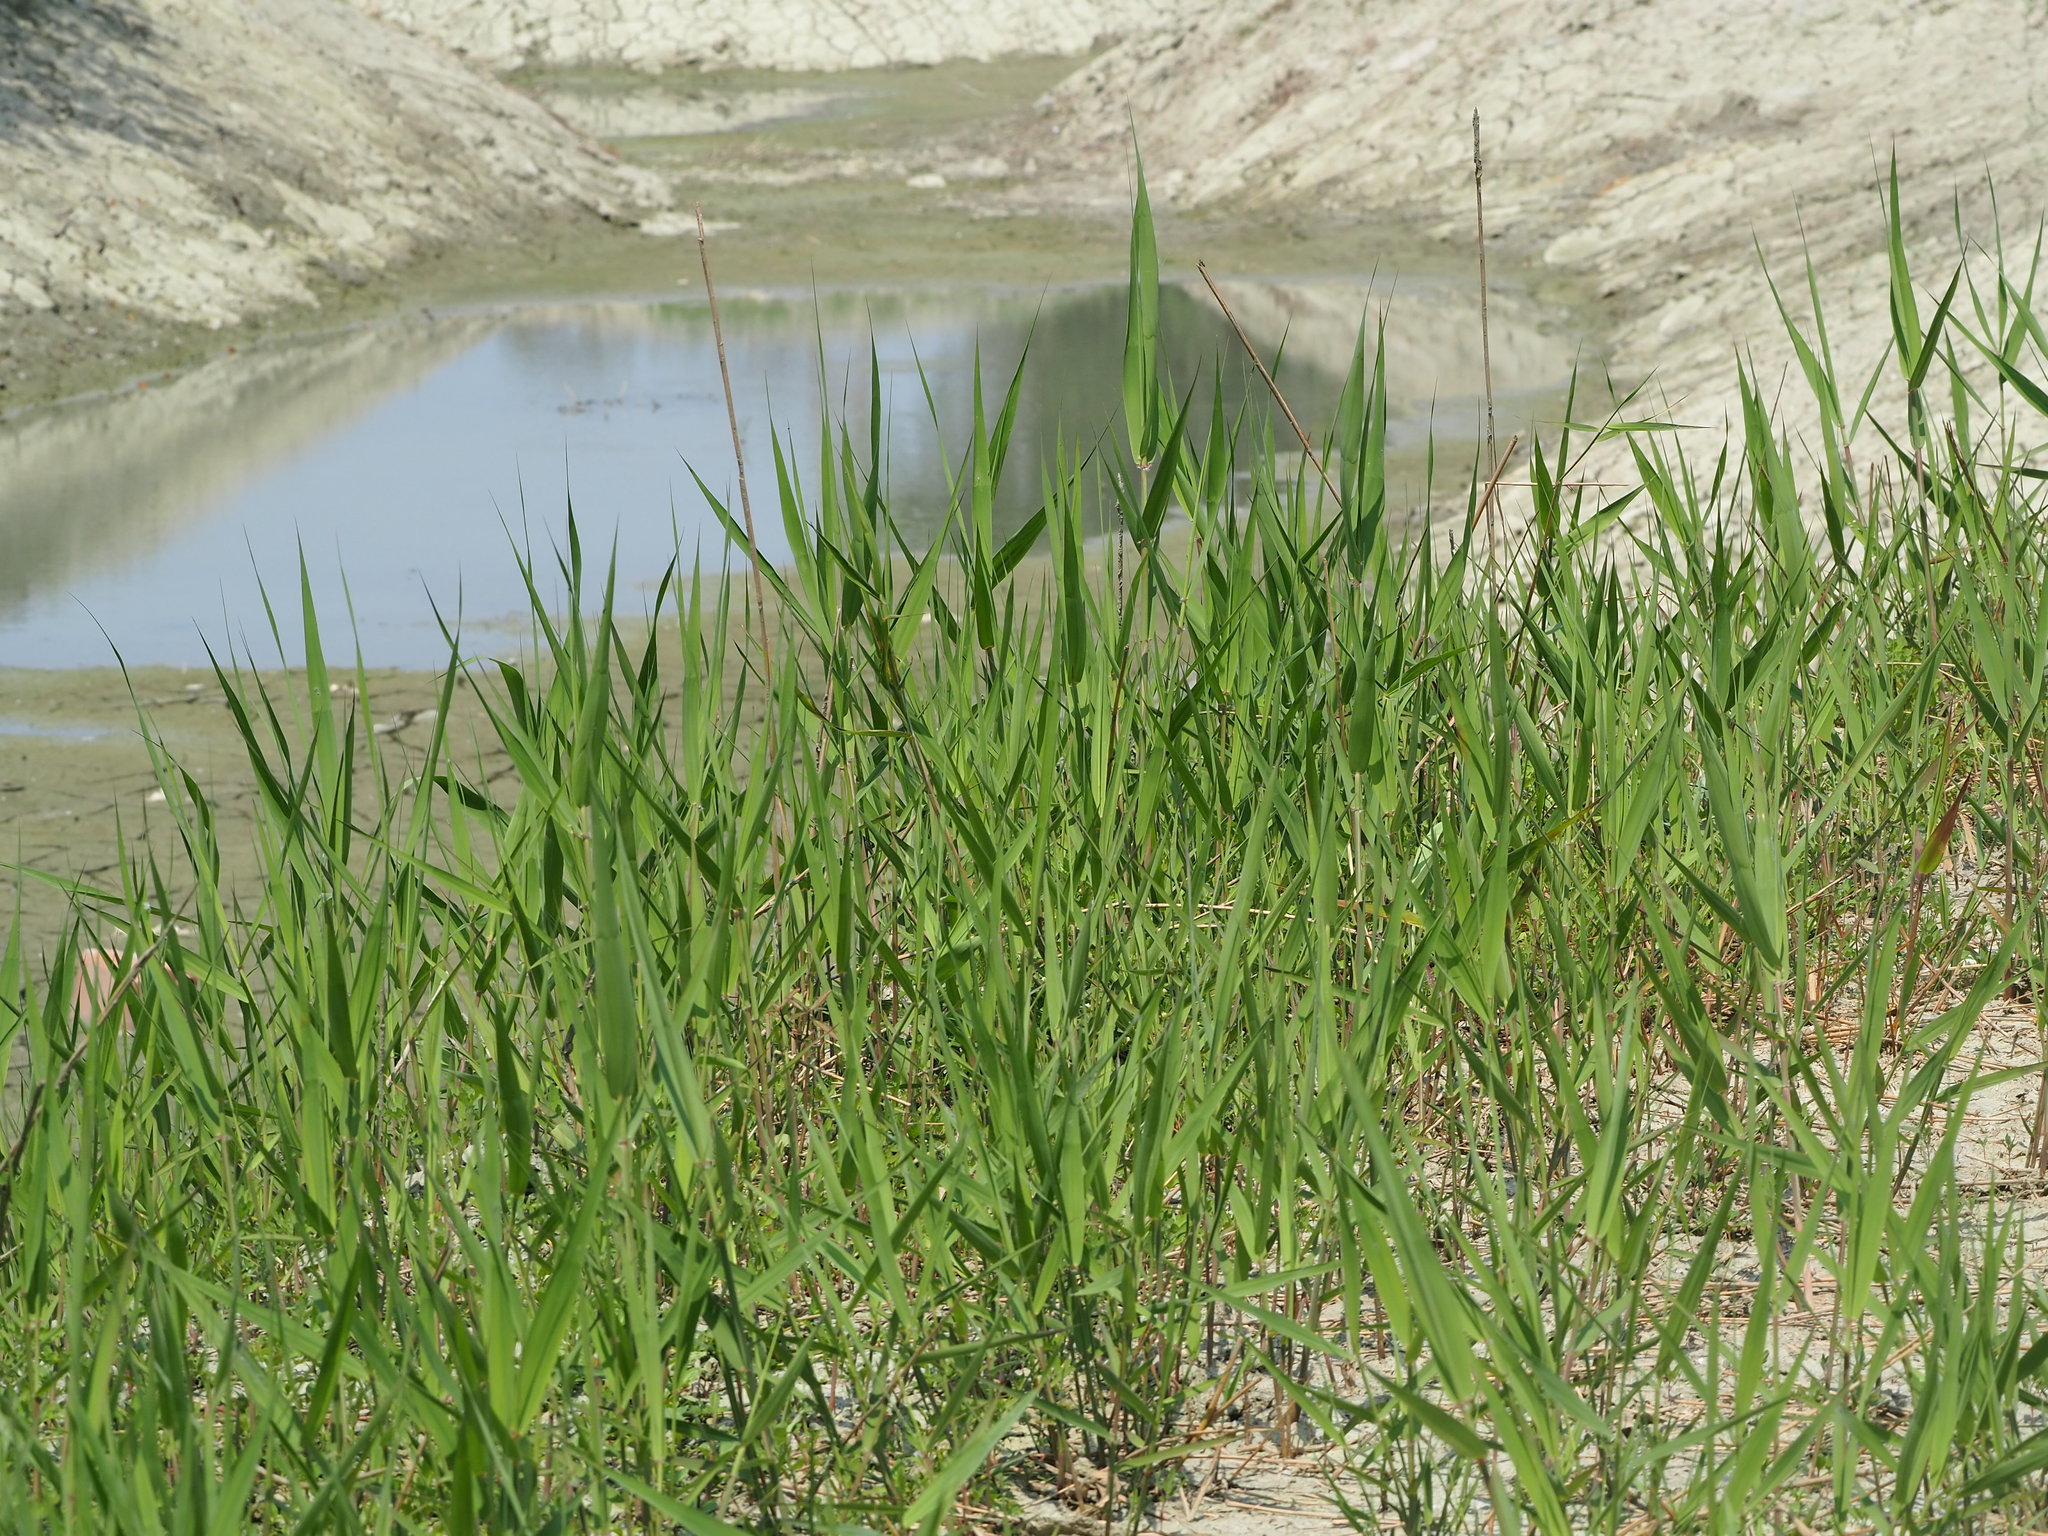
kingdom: Plantae
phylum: Tracheophyta
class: Liliopsida
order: Poales
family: Poaceae
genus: Phragmites
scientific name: Phragmites australis
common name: Common reed
